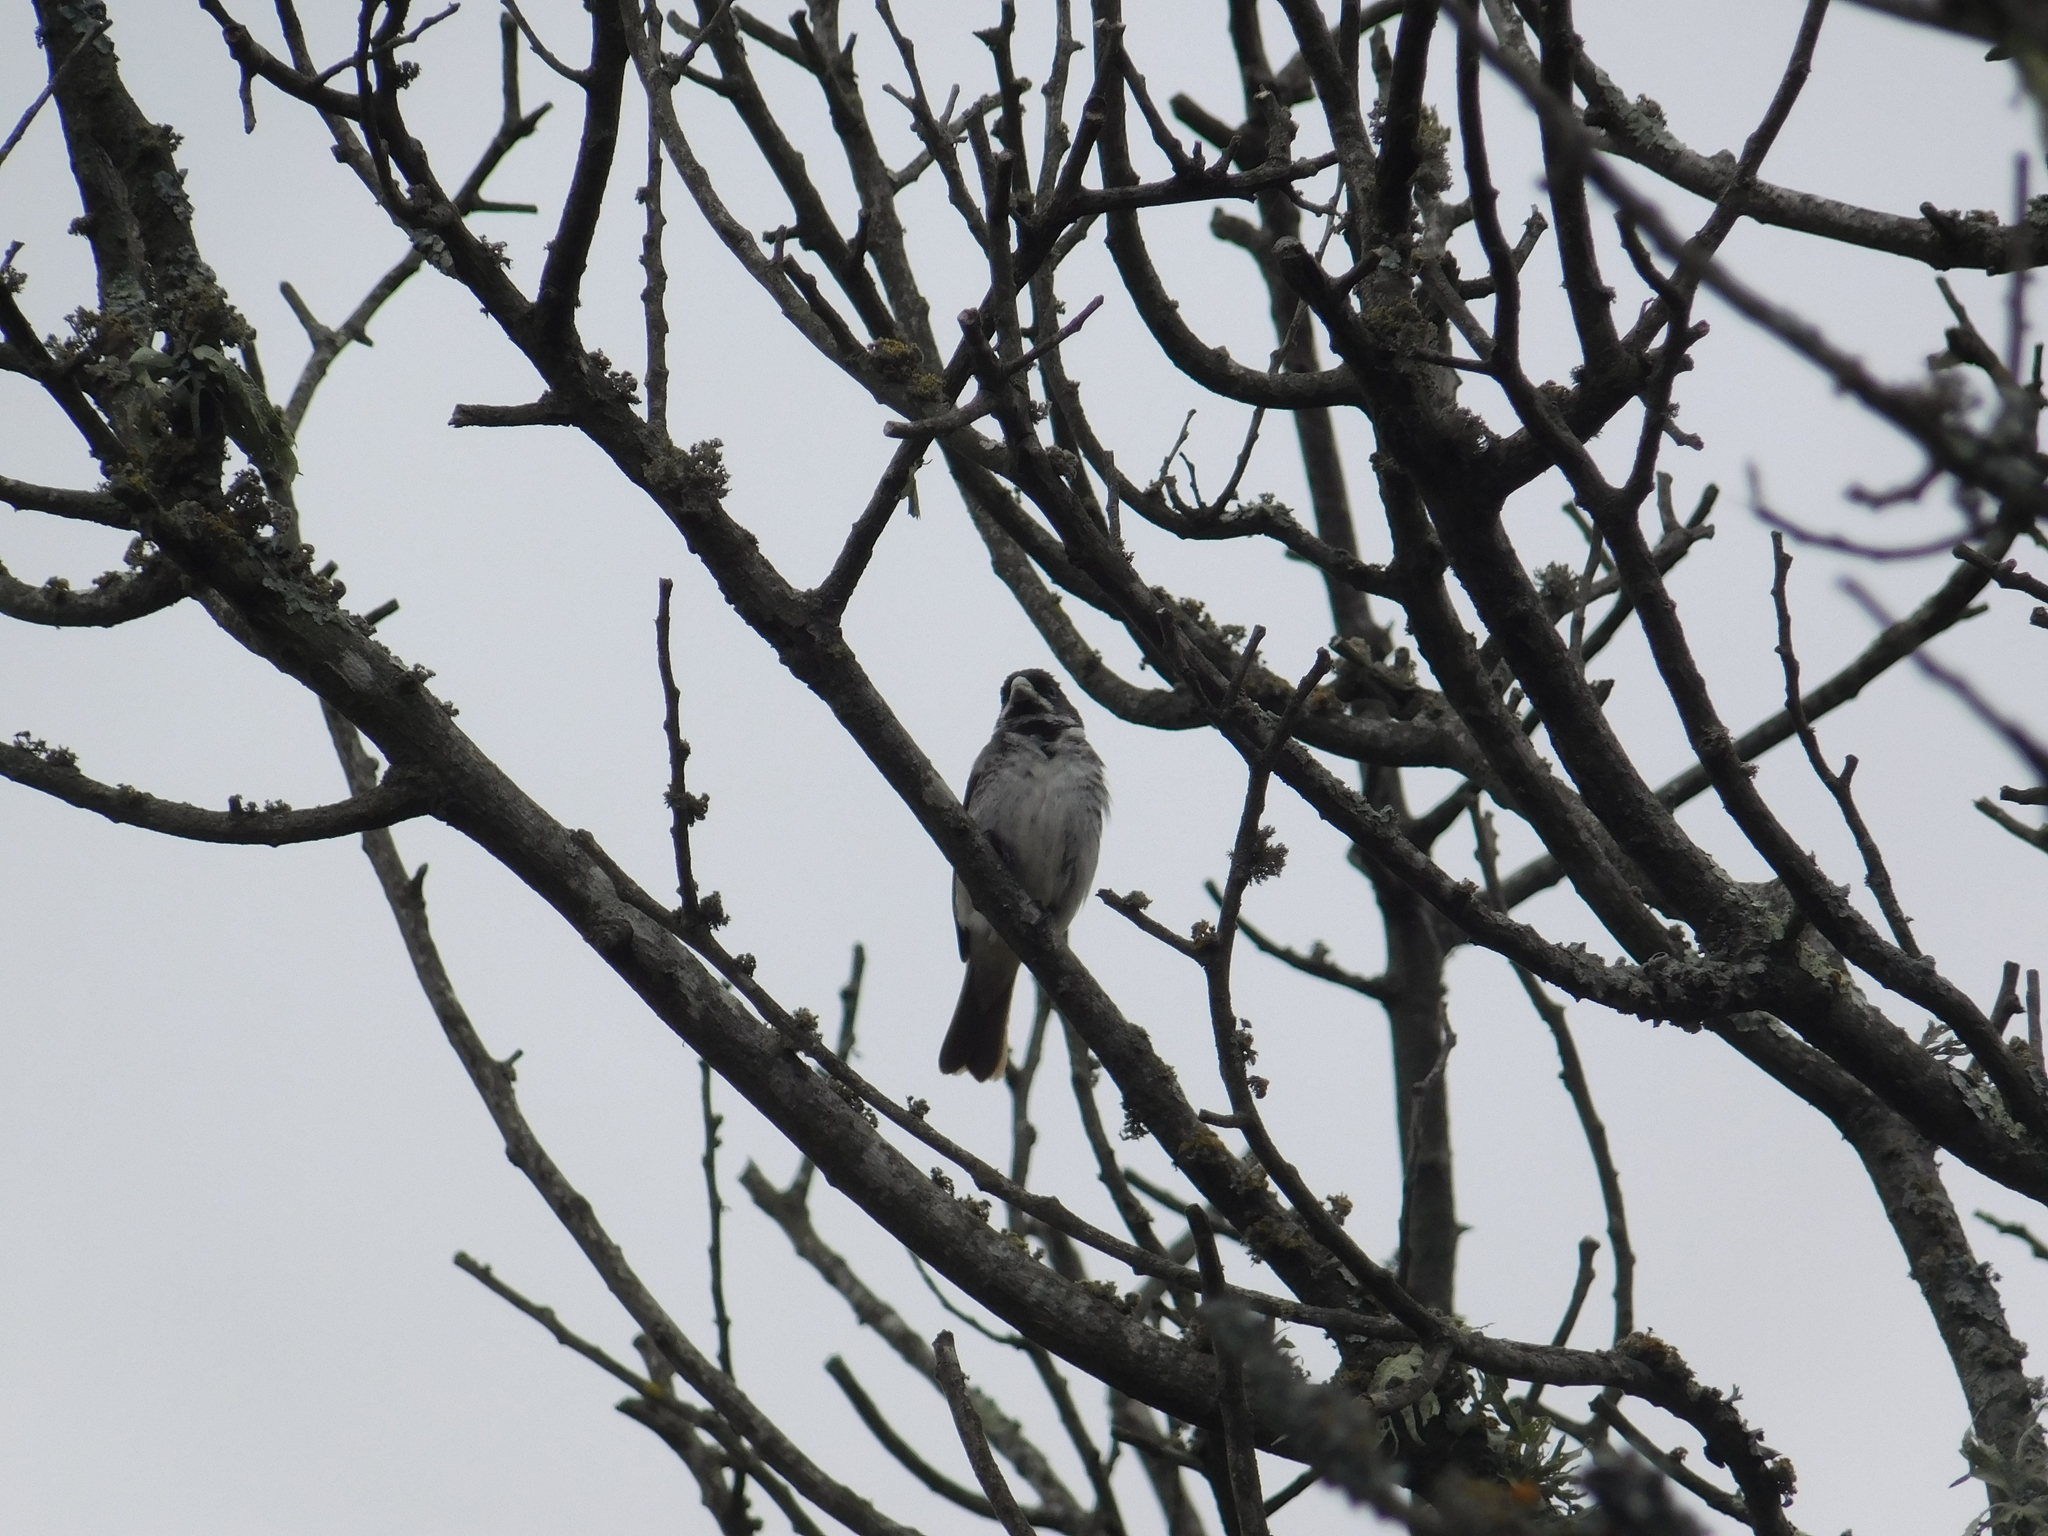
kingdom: Animalia
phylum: Chordata
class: Aves
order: Passeriformes
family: Thraupidae
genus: Sporophila
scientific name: Sporophila caerulescens
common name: Double-collared seedeater
